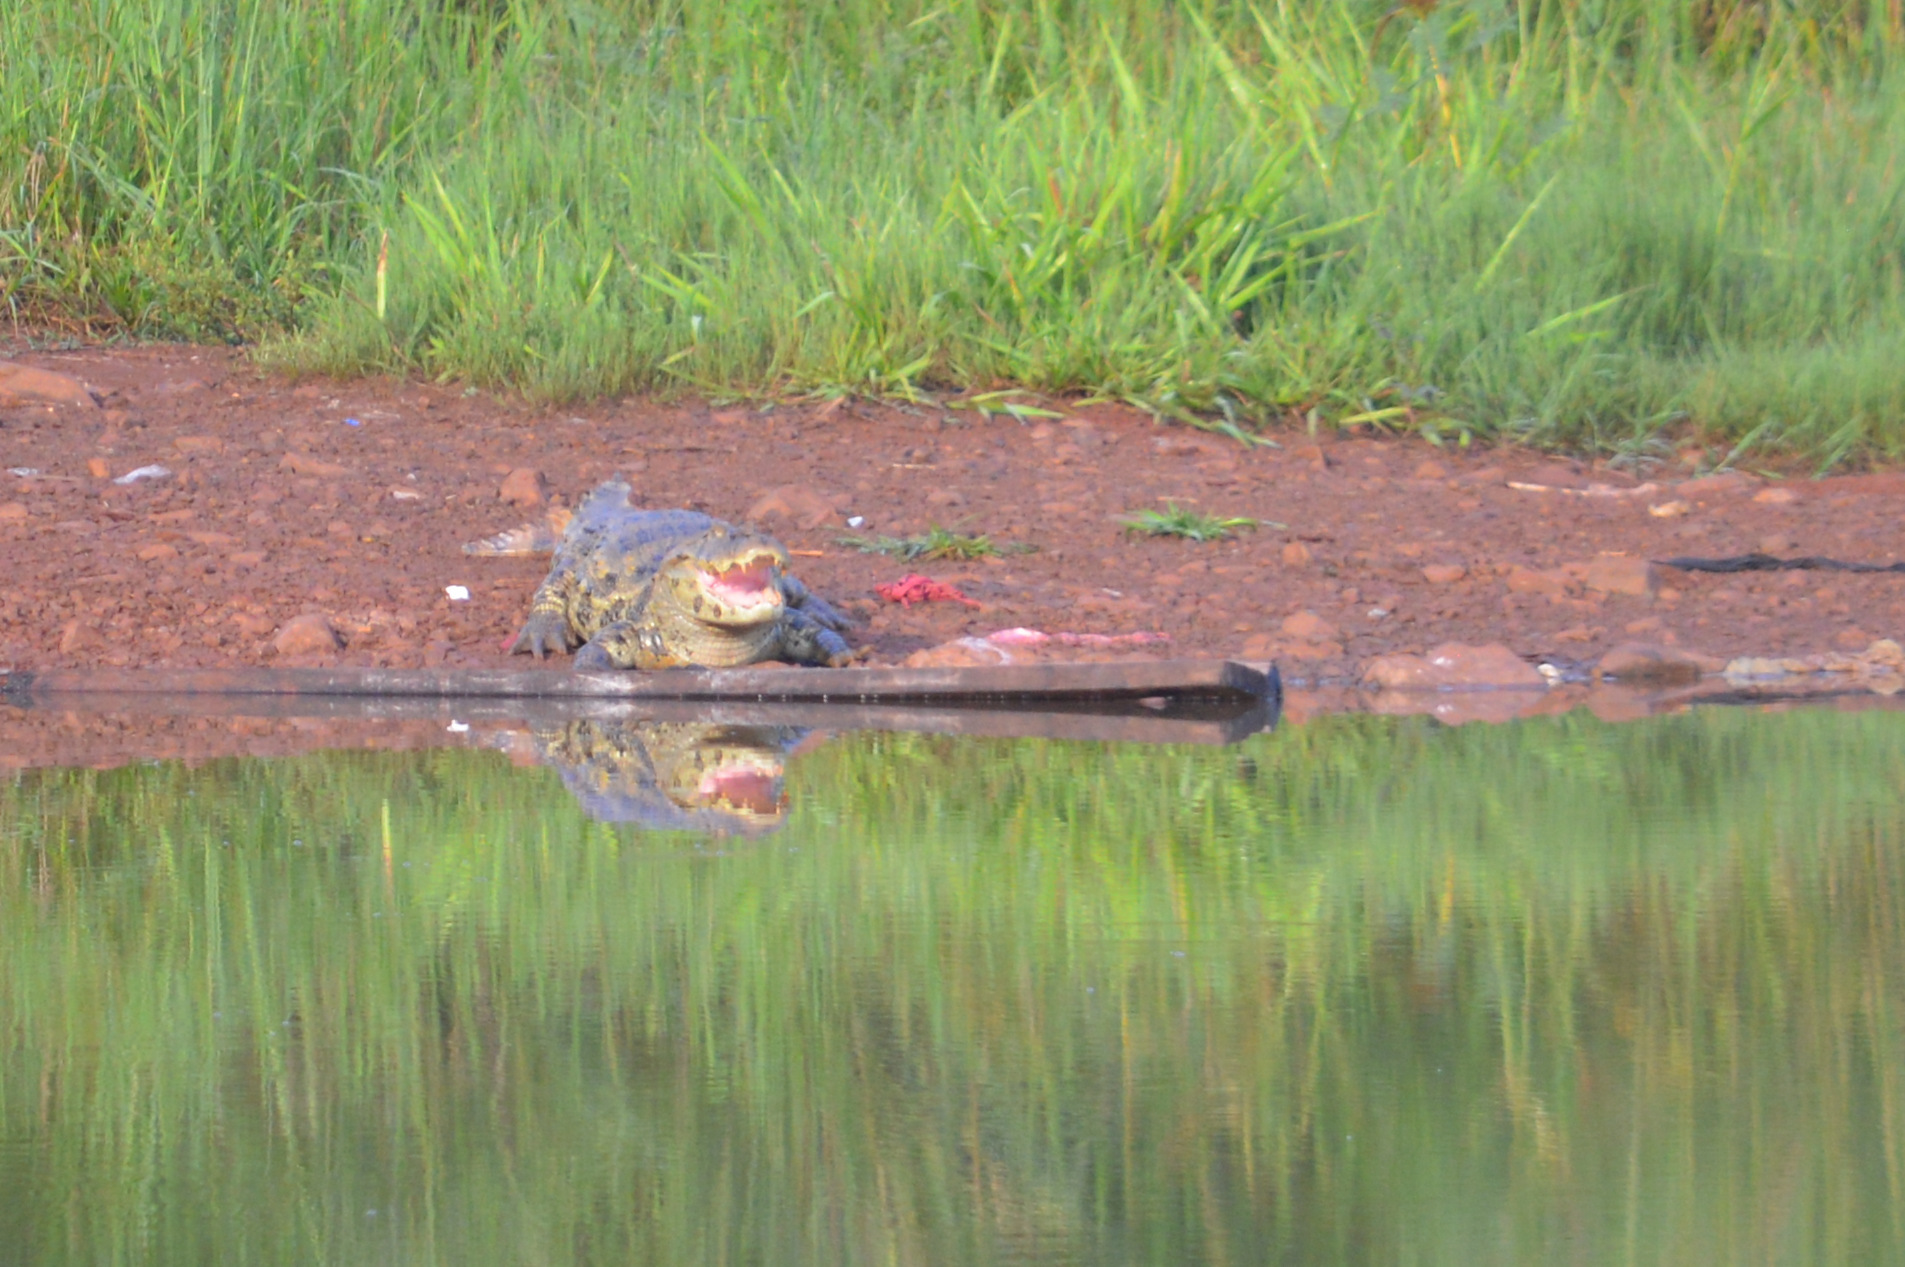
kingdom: Animalia
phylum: Chordata
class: Crocodylia
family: Alligatoridae
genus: Caiman
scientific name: Caiman latirostris
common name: Broad-snouted caiman
